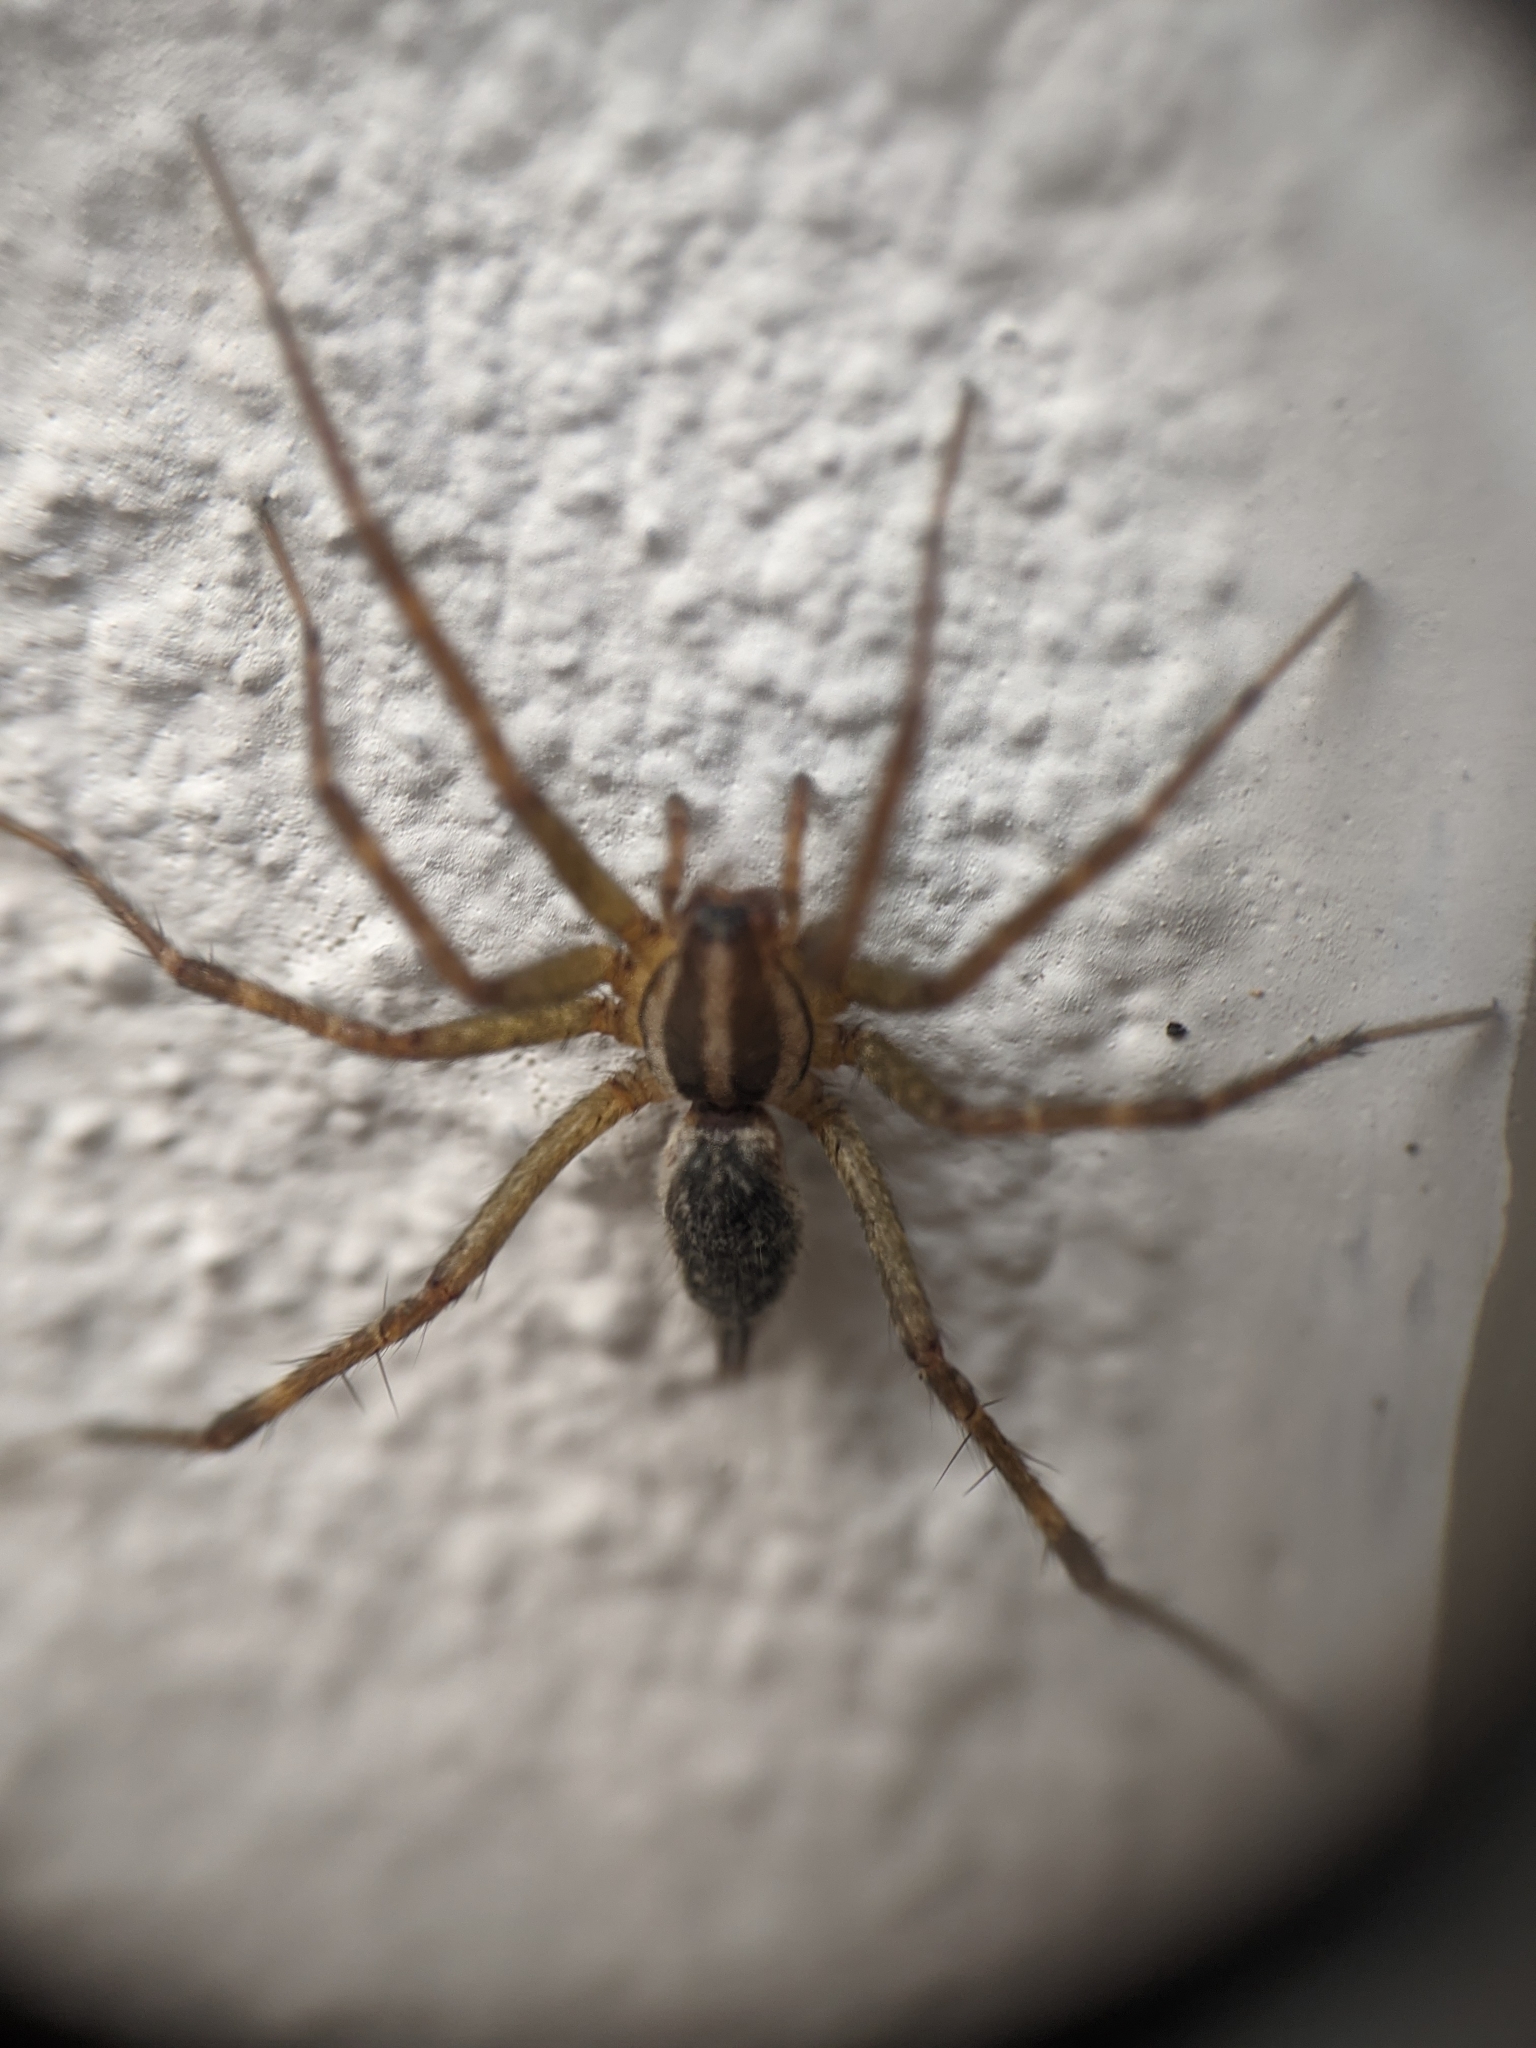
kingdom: Animalia
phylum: Arthropoda
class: Arachnida
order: Araneae
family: Agelenidae
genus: Agelenopsis
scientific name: Agelenopsis
